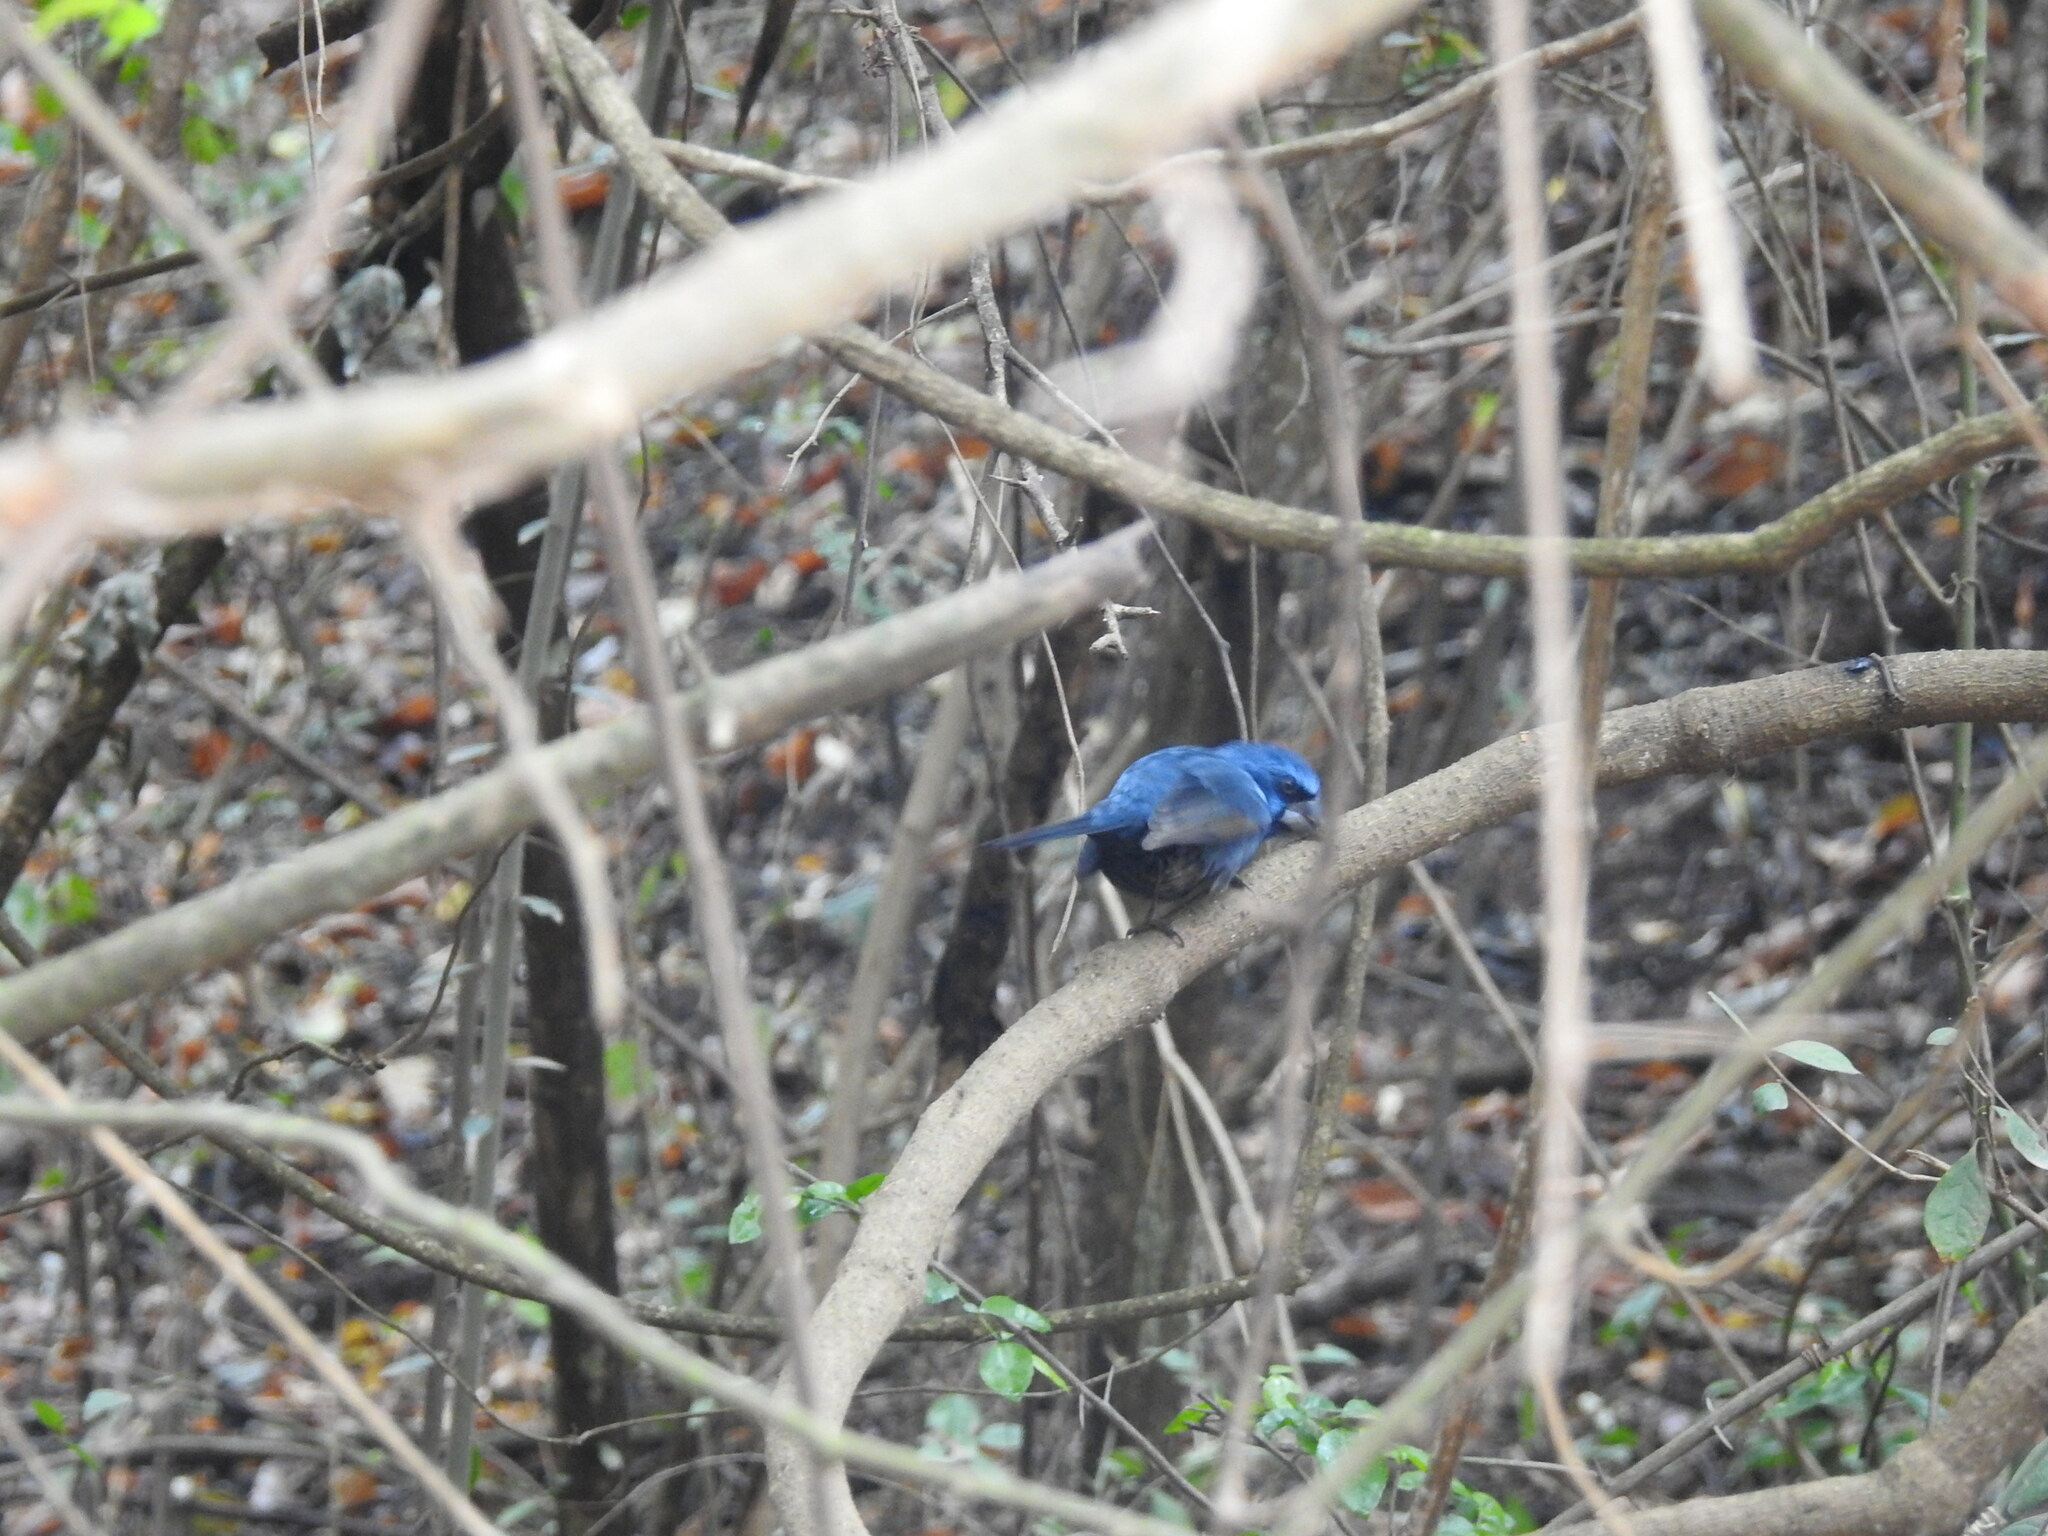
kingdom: Animalia
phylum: Chordata
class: Aves
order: Passeriformes
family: Cardinalidae
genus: Cyanoloxia
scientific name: Cyanoloxia brissonii
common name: Ultramarine grosbeak
